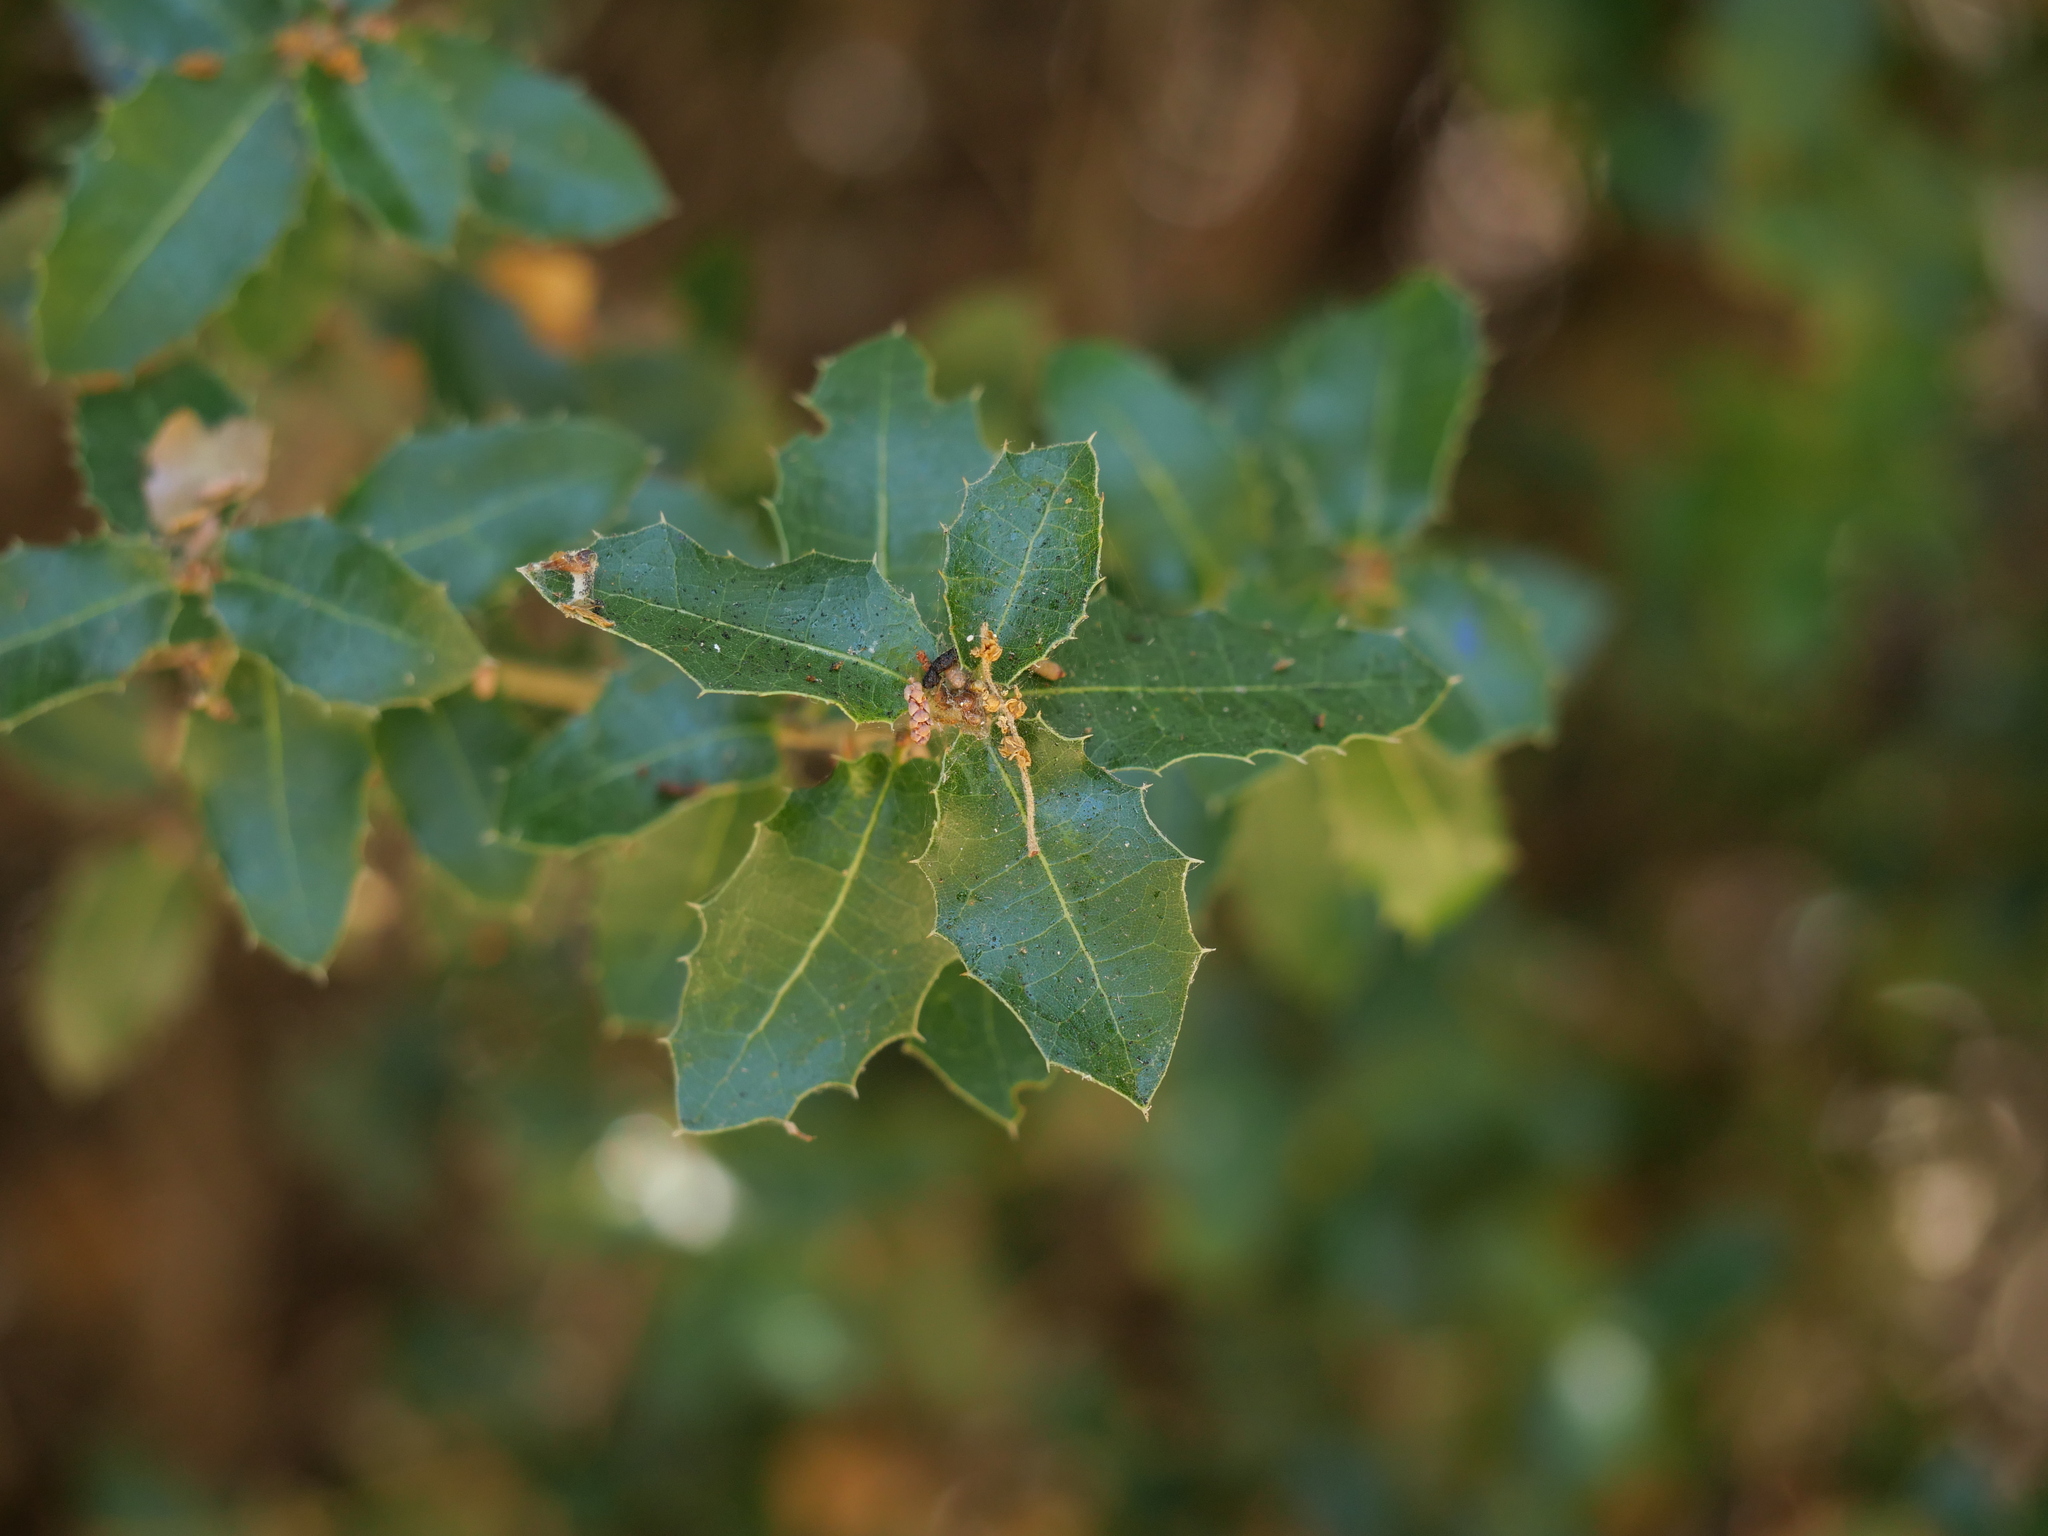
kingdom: Plantae
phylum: Tracheophyta
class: Magnoliopsida
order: Fagales
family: Fagaceae
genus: Quercus
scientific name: Quercus coccifera
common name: Kermes oak
